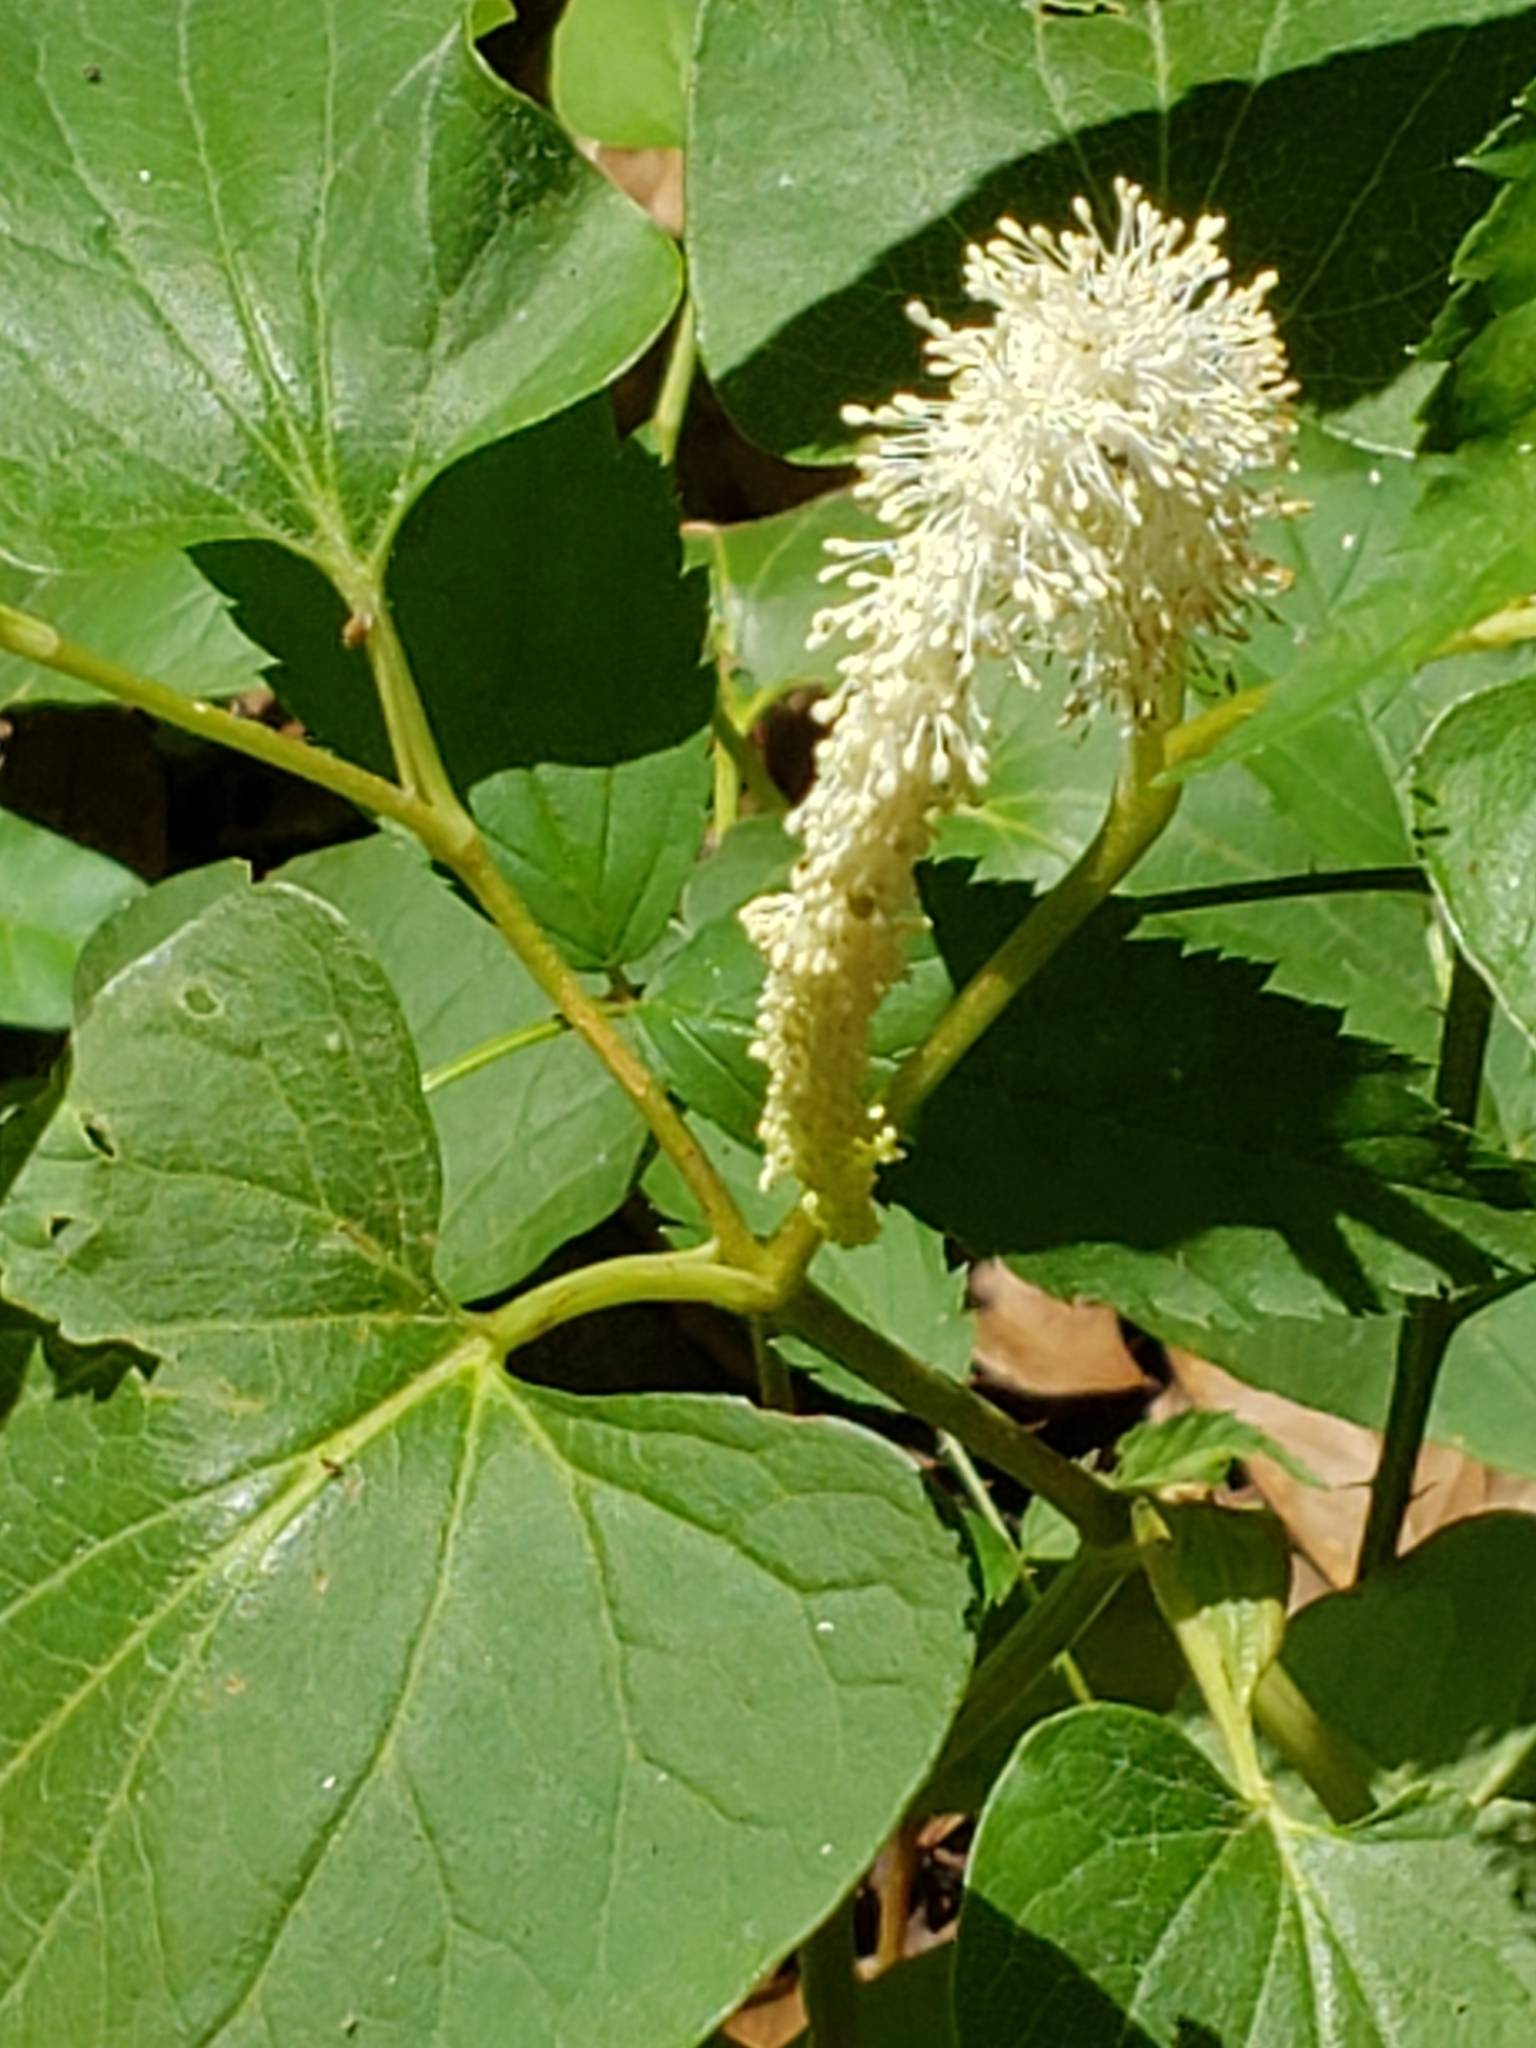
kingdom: Plantae
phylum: Tracheophyta
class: Magnoliopsida
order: Piperales
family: Saururaceae
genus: Saururus
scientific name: Saururus cernuus
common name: Lizard's-tail
